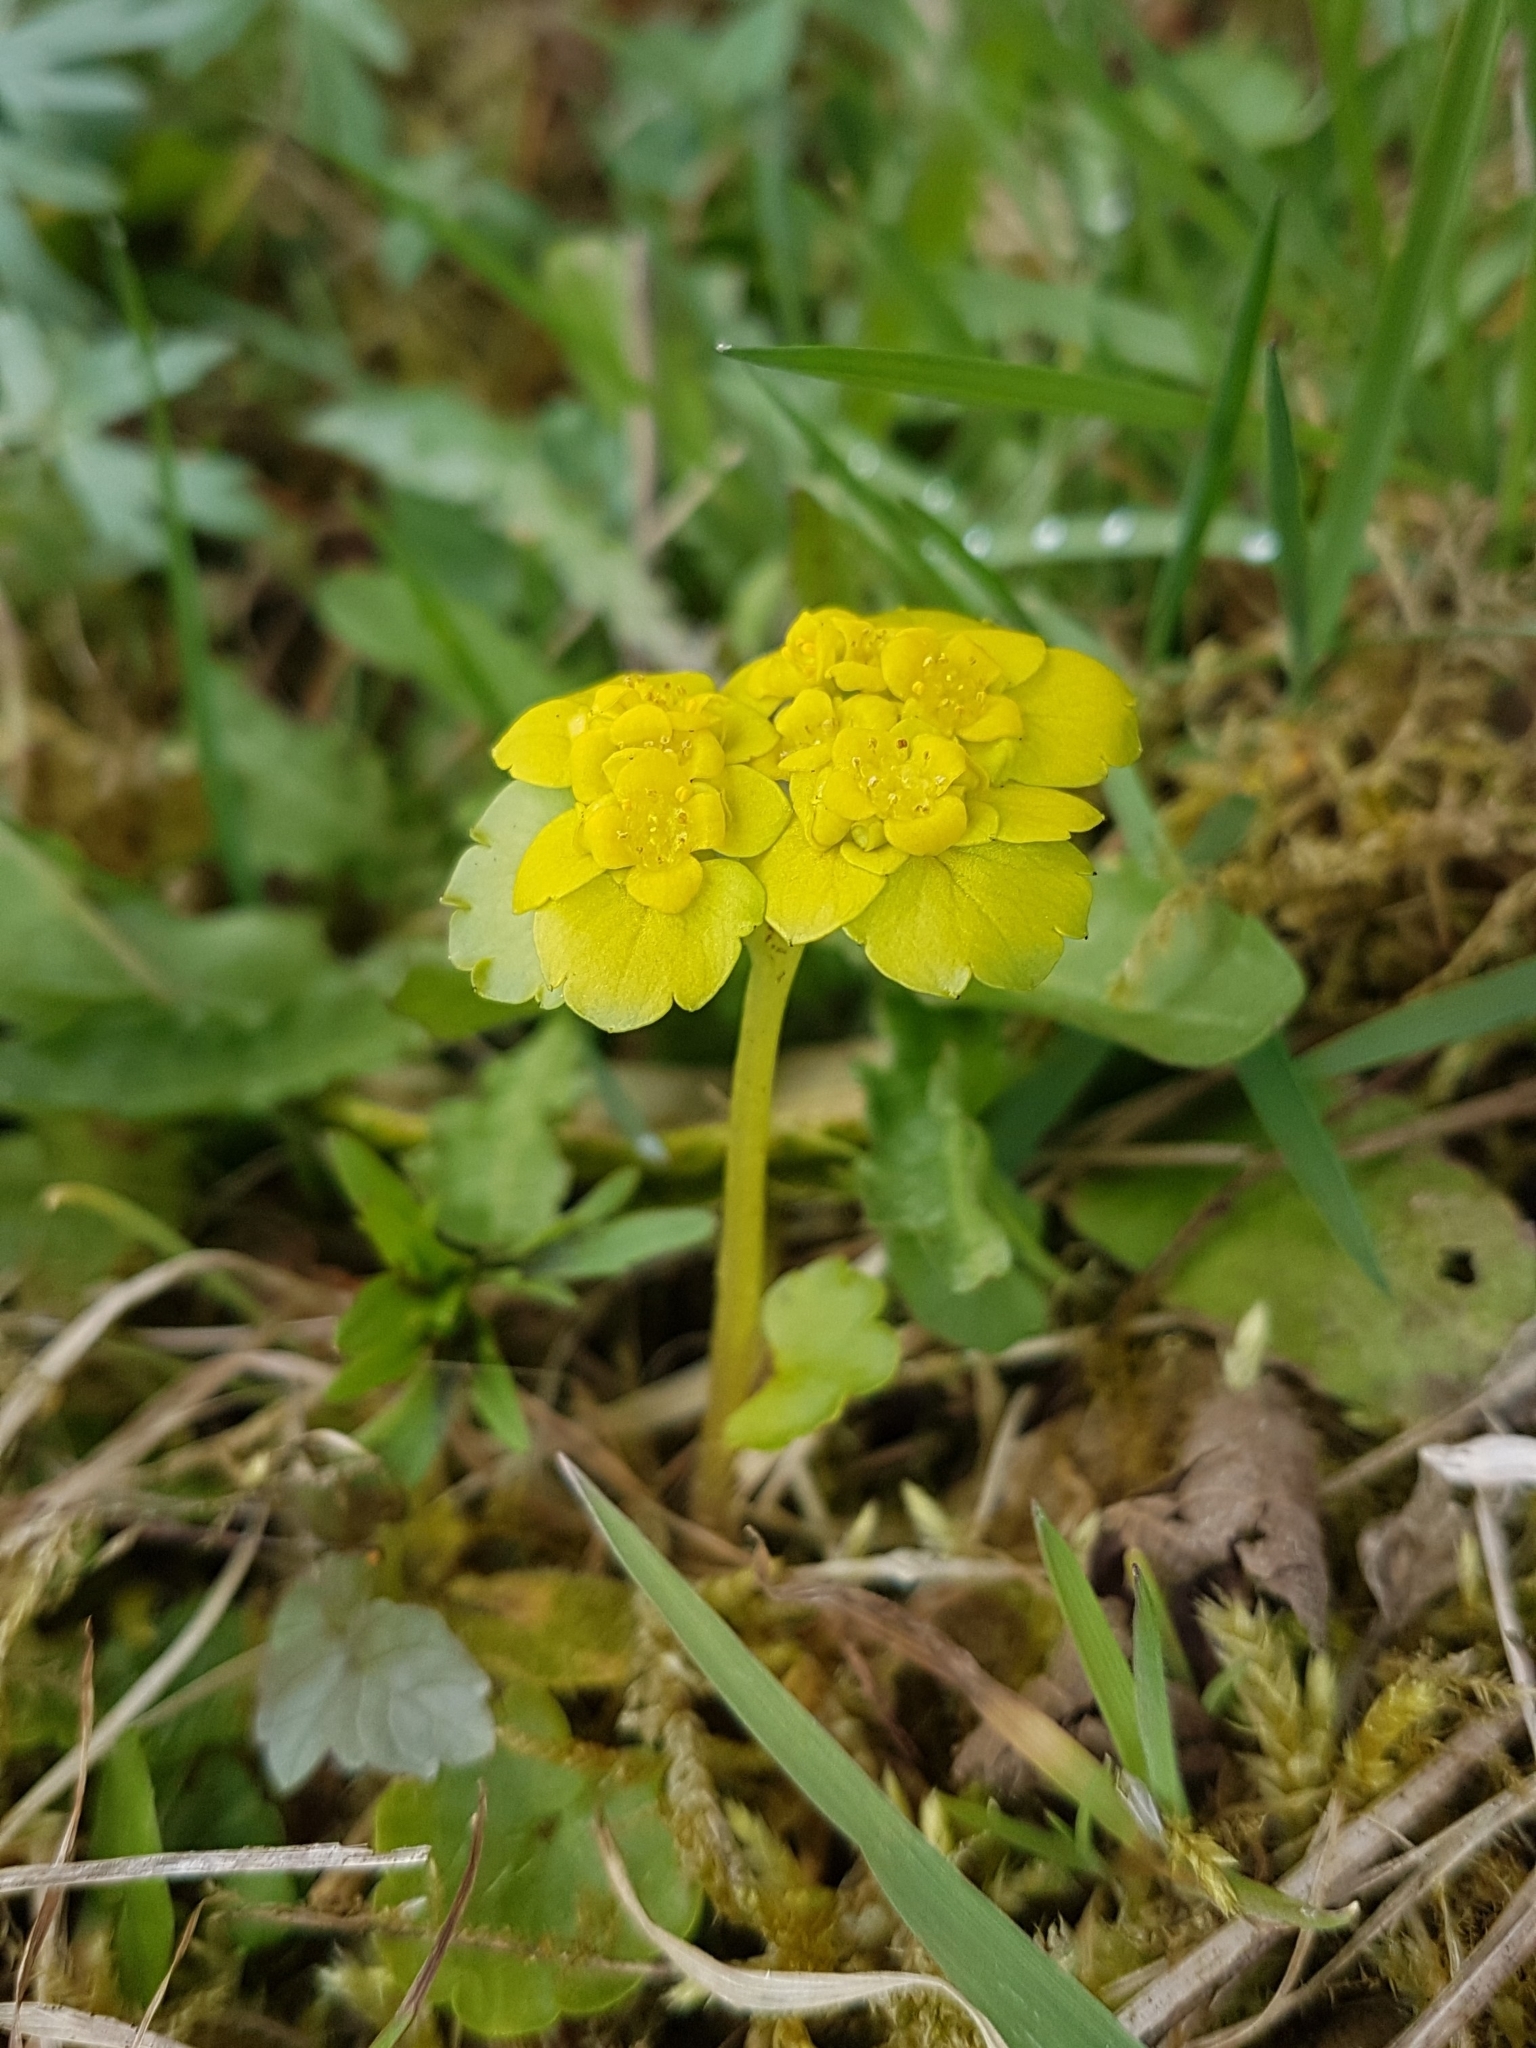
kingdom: Plantae
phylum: Tracheophyta
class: Magnoliopsida
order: Saxifragales
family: Saxifragaceae
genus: Chrysosplenium
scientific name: Chrysosplenium alternifolium
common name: Alternate-leaved golden-saxifrage
